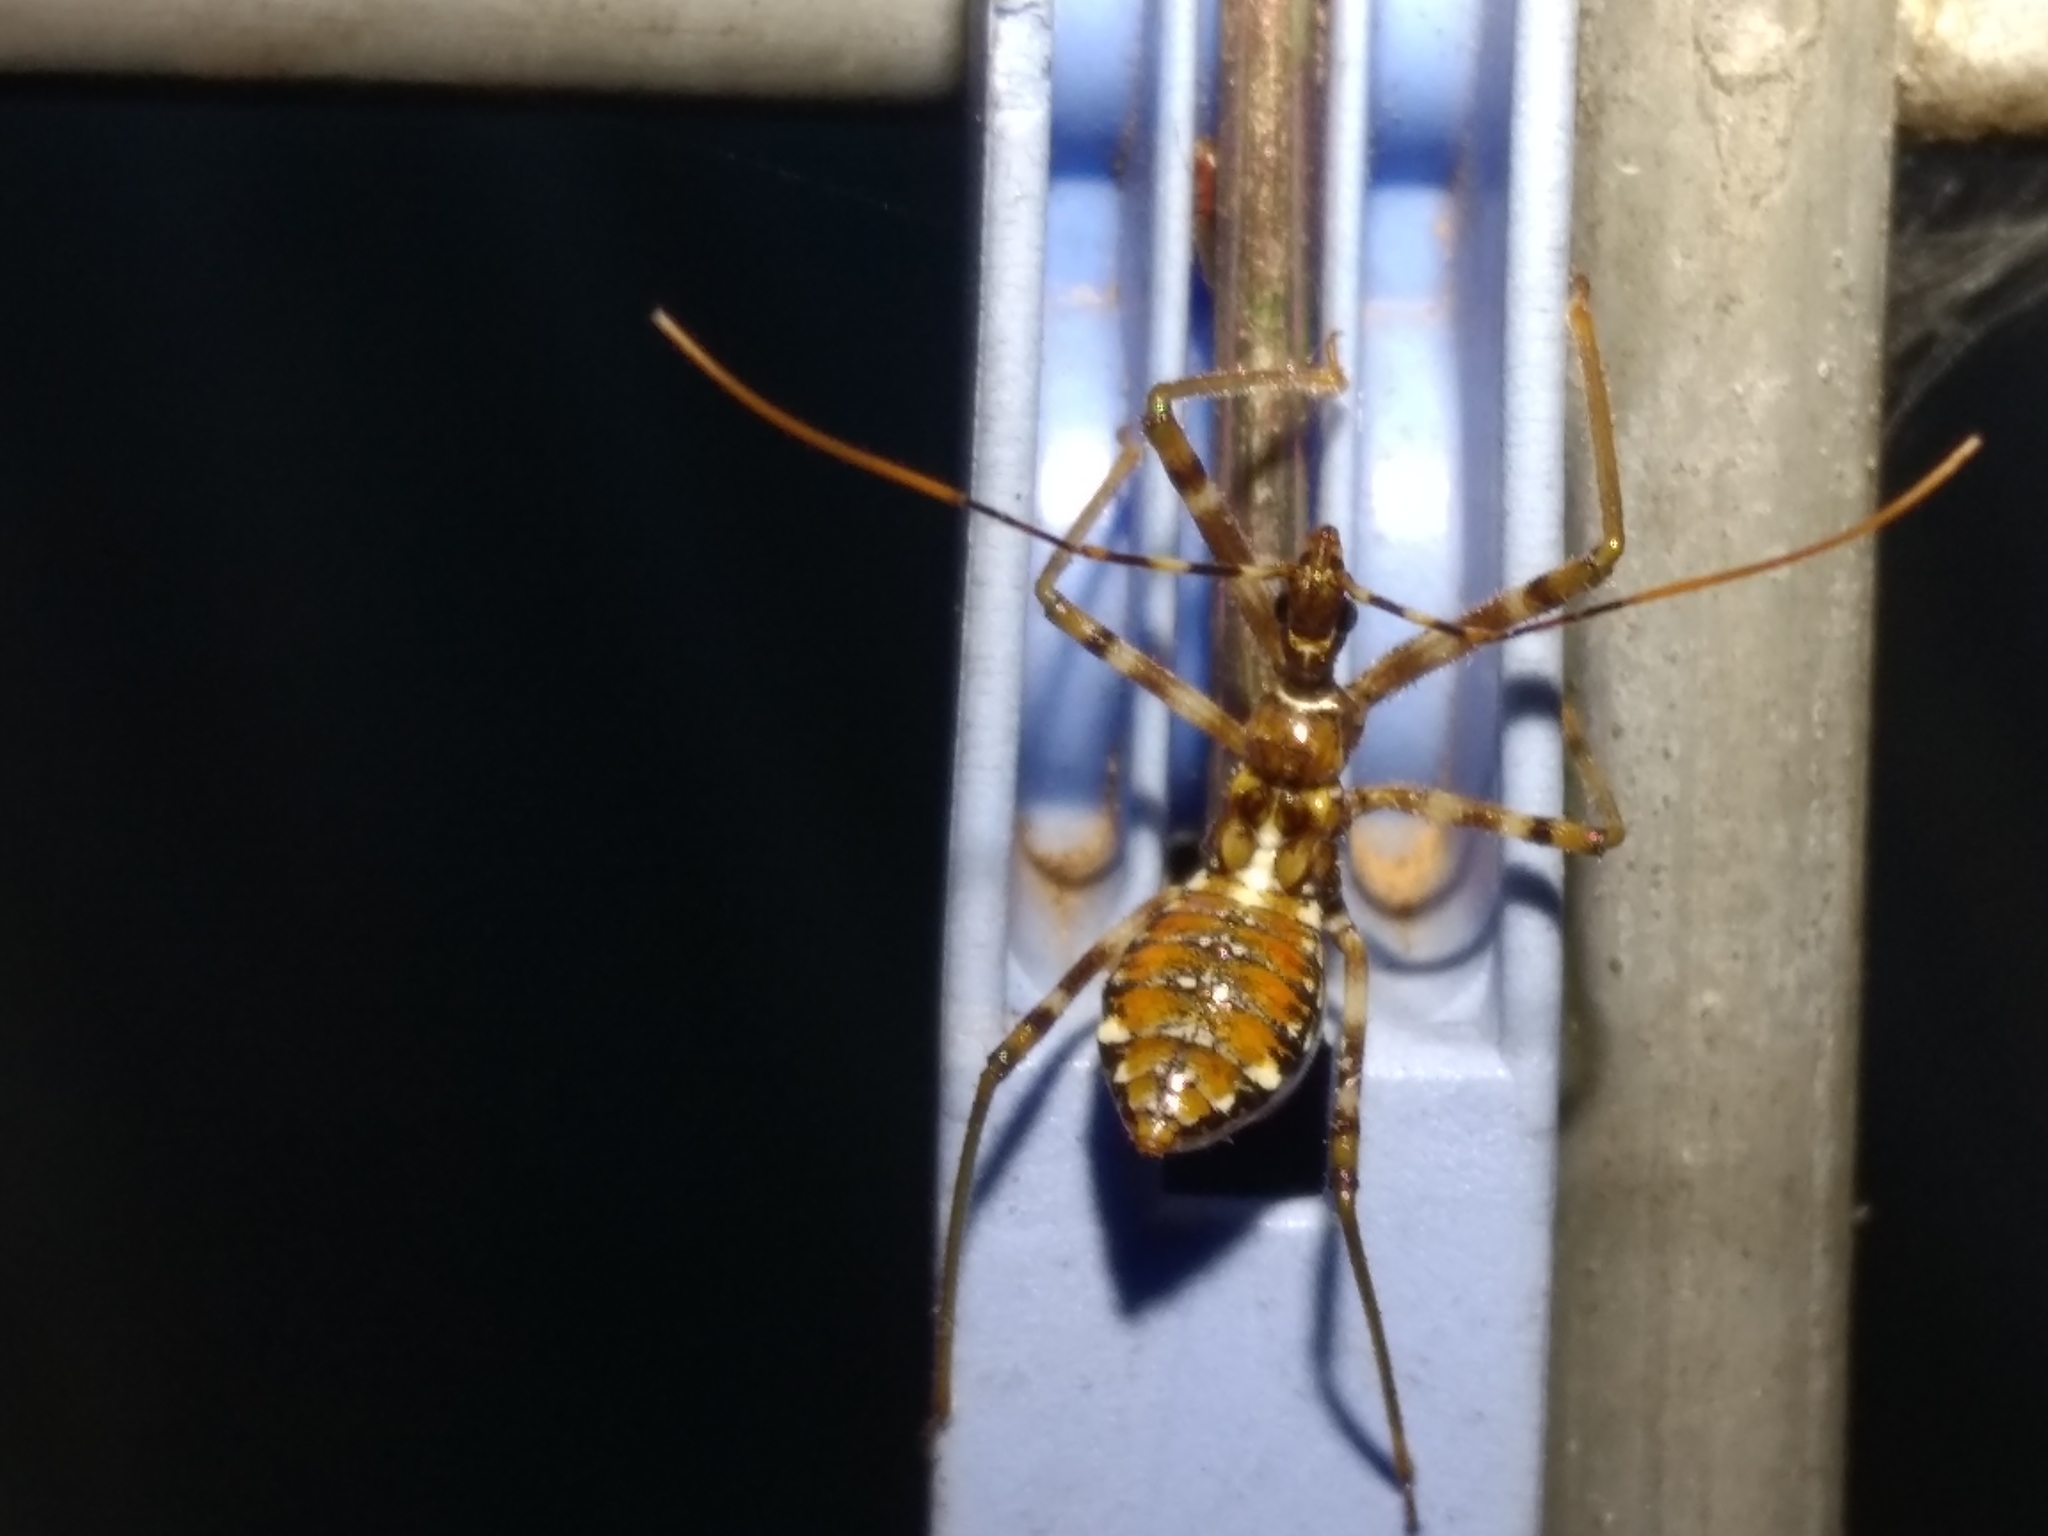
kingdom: Animalia
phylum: Arthropoda
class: Insecta
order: Hemiptera
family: Reduviidae
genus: Pristhesancus
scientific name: Pristhesancus plagipennis
